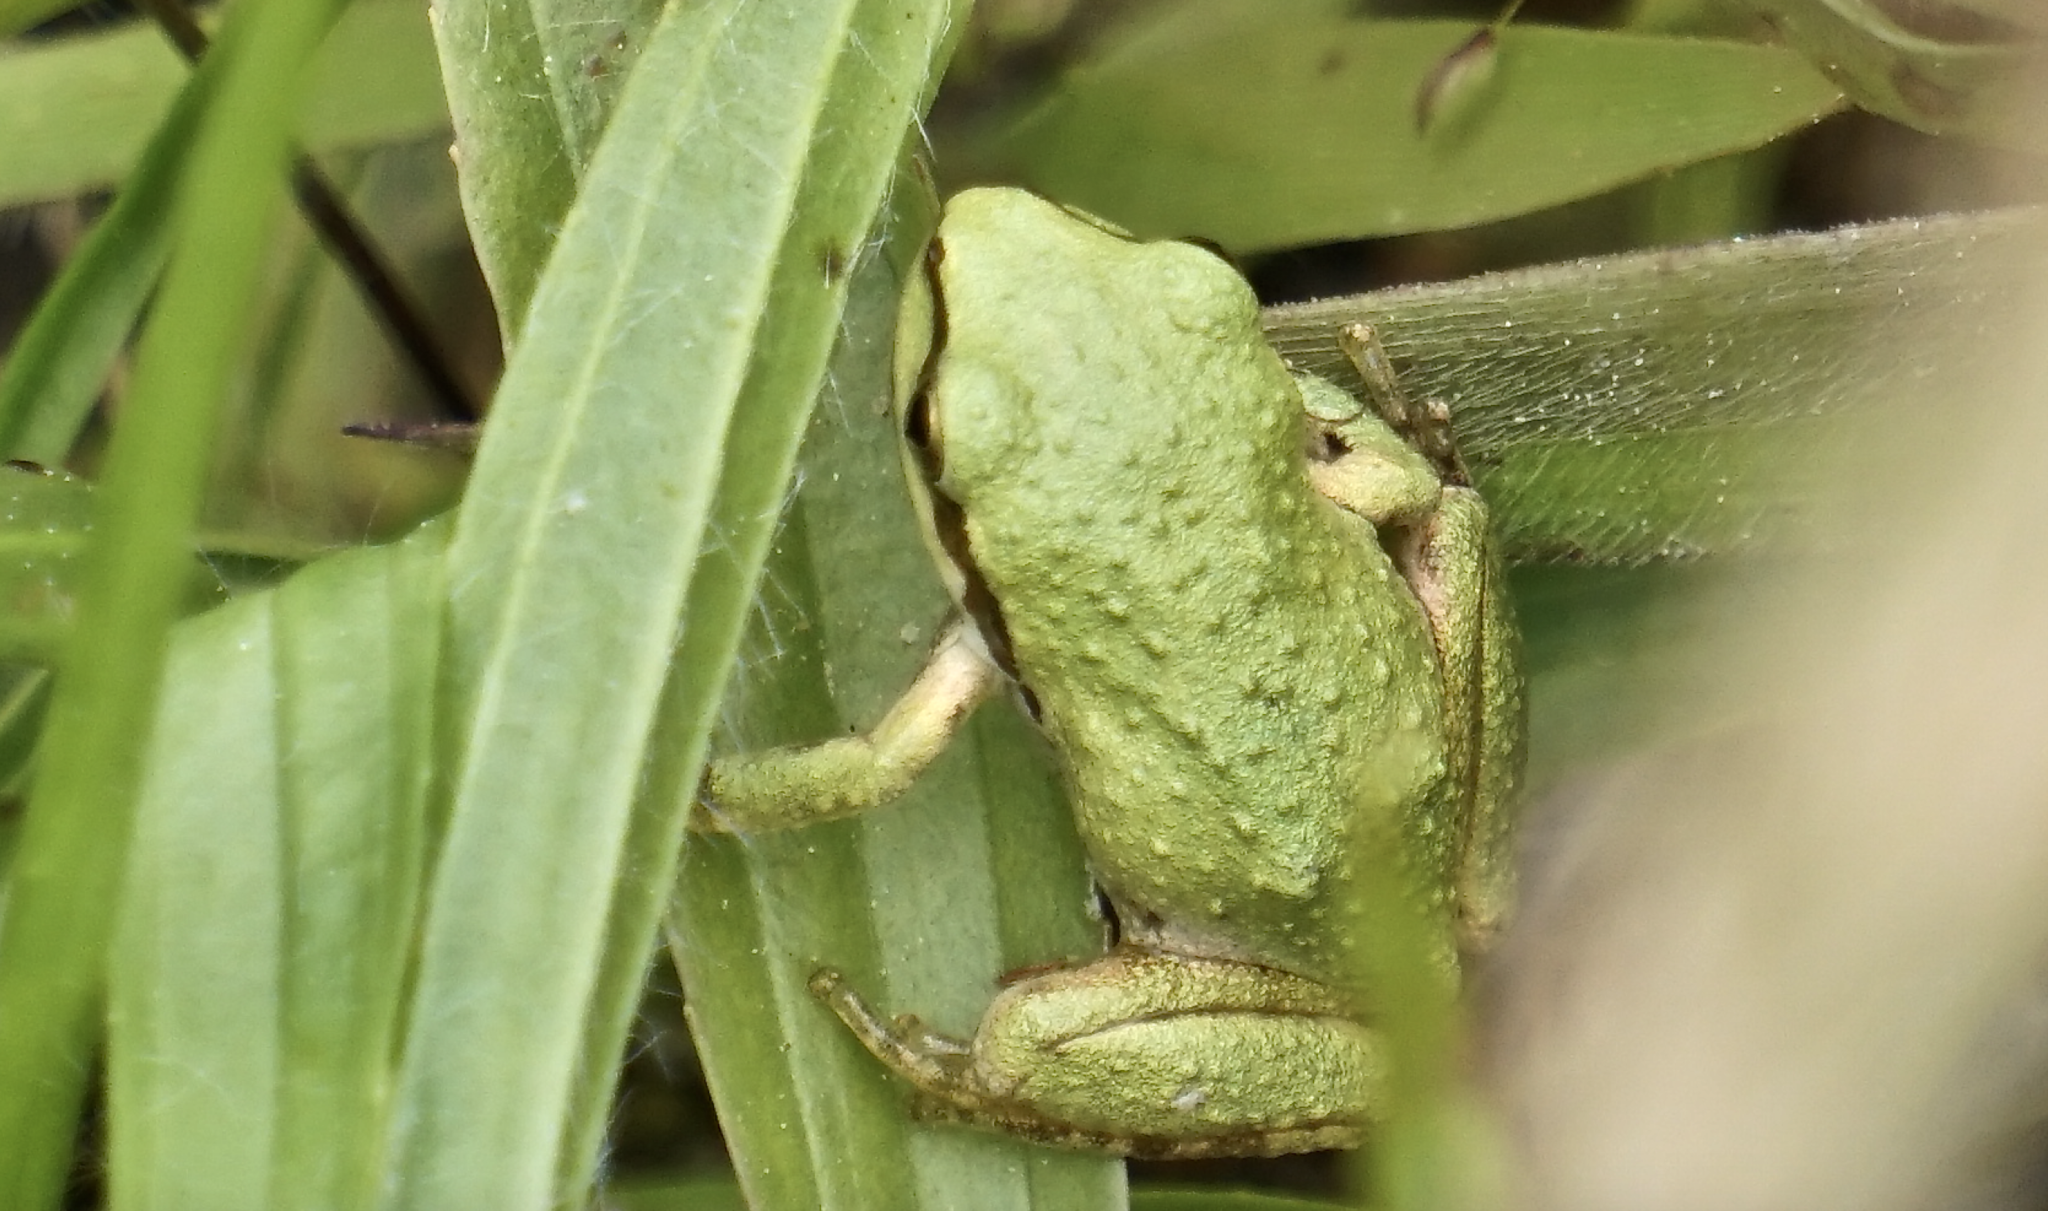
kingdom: Animalia
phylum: Chordata
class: Amphibia
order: Anura
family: Hylidae
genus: Pseudacris
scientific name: Pseudacris regilla
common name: Pacific chorus frog
